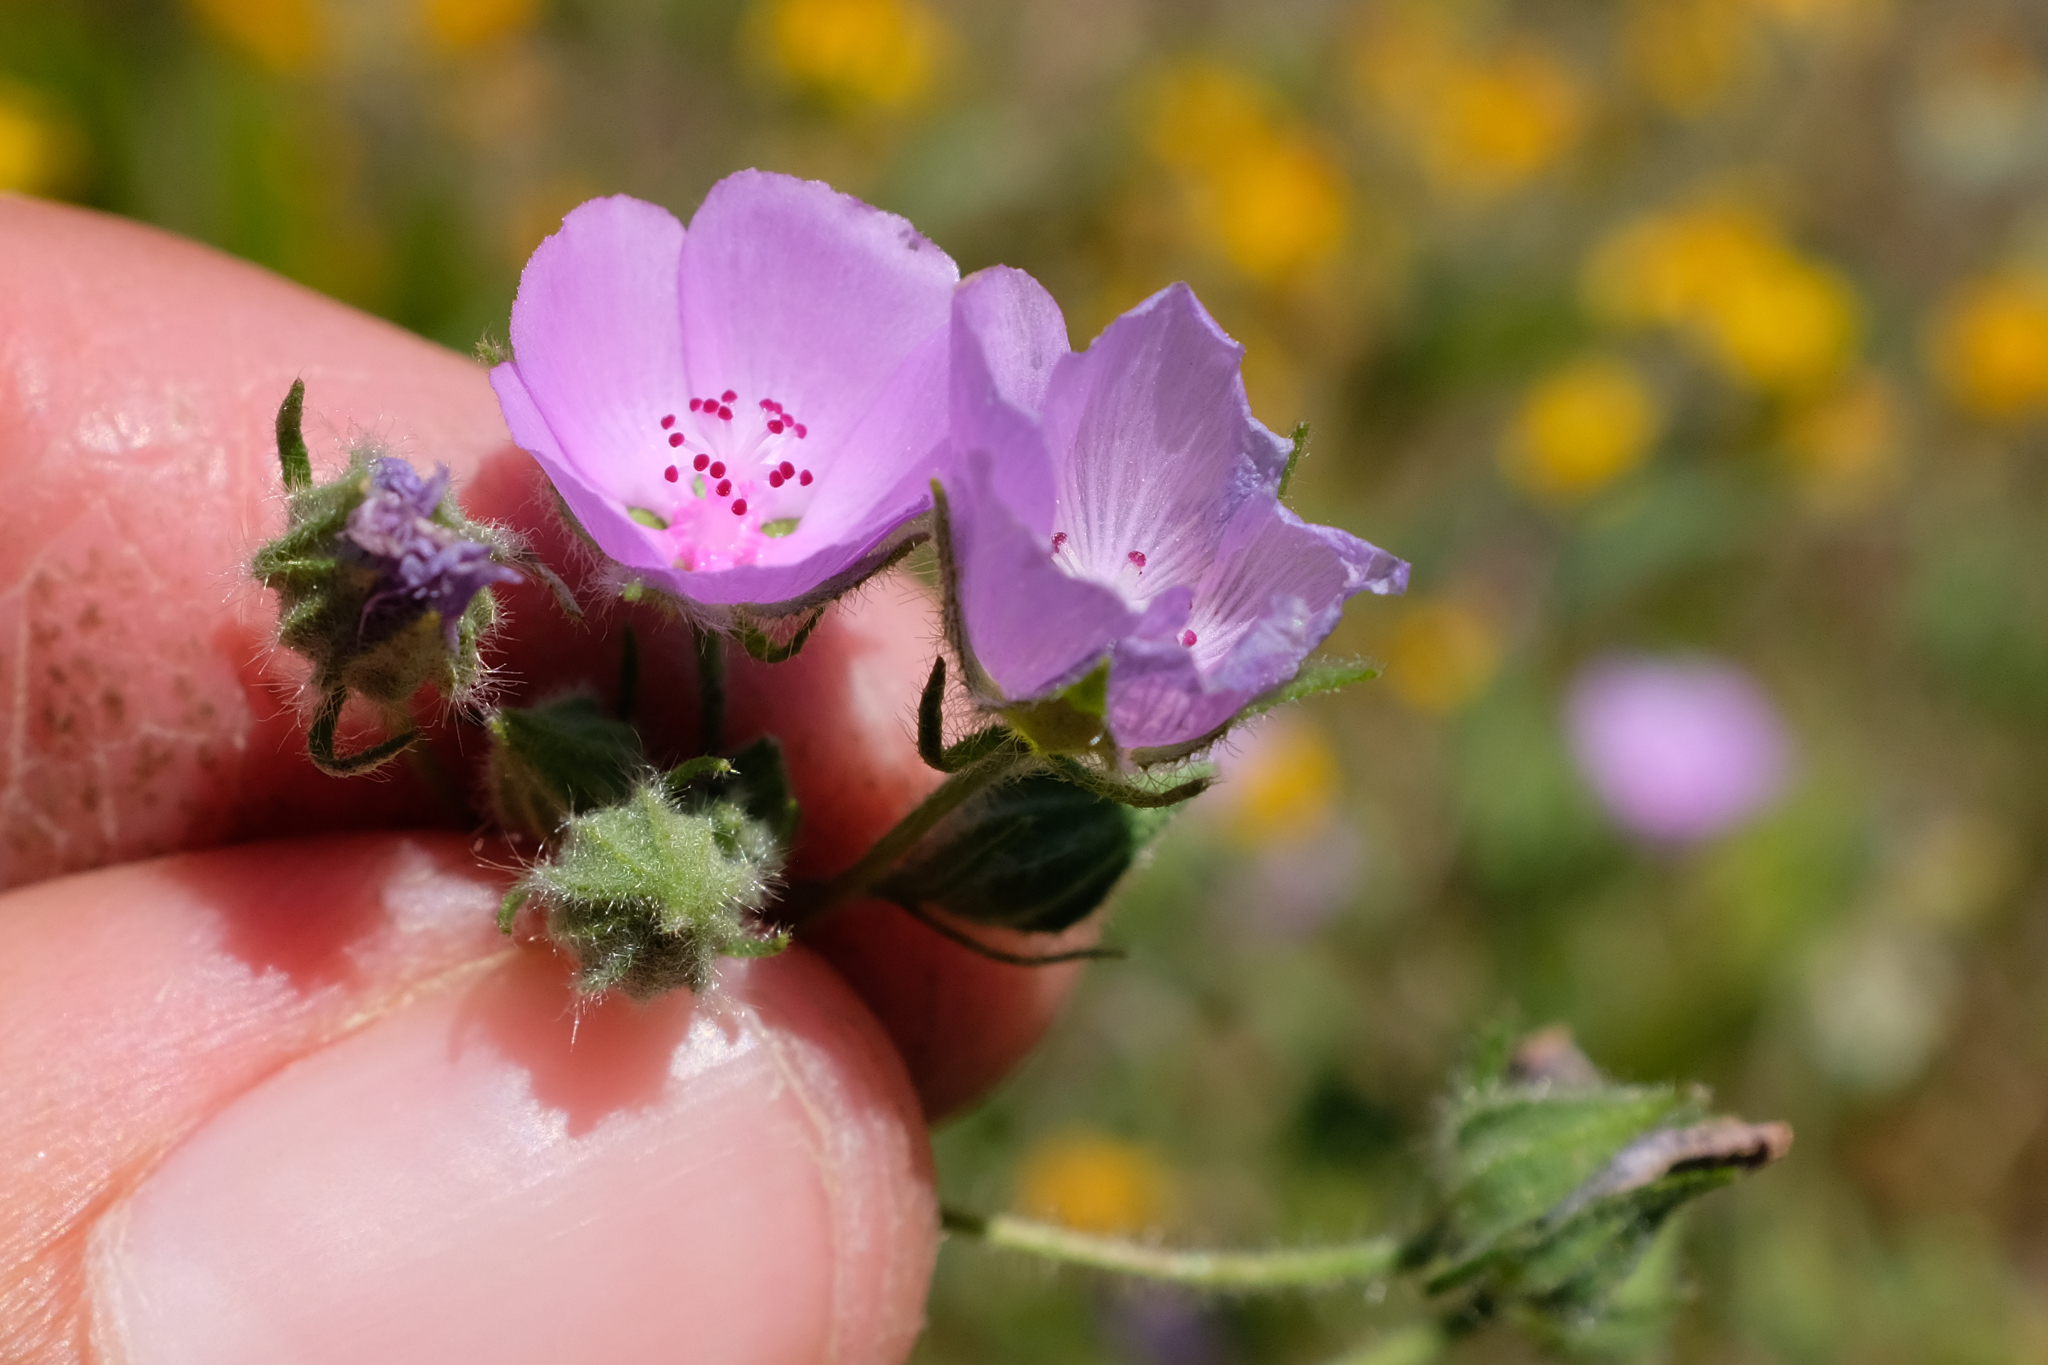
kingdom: Plantae
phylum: Tracheophyta
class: Magnoliopsida
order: Malvales
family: Malvaceae
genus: Eremalche
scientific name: Eremalche parryi
